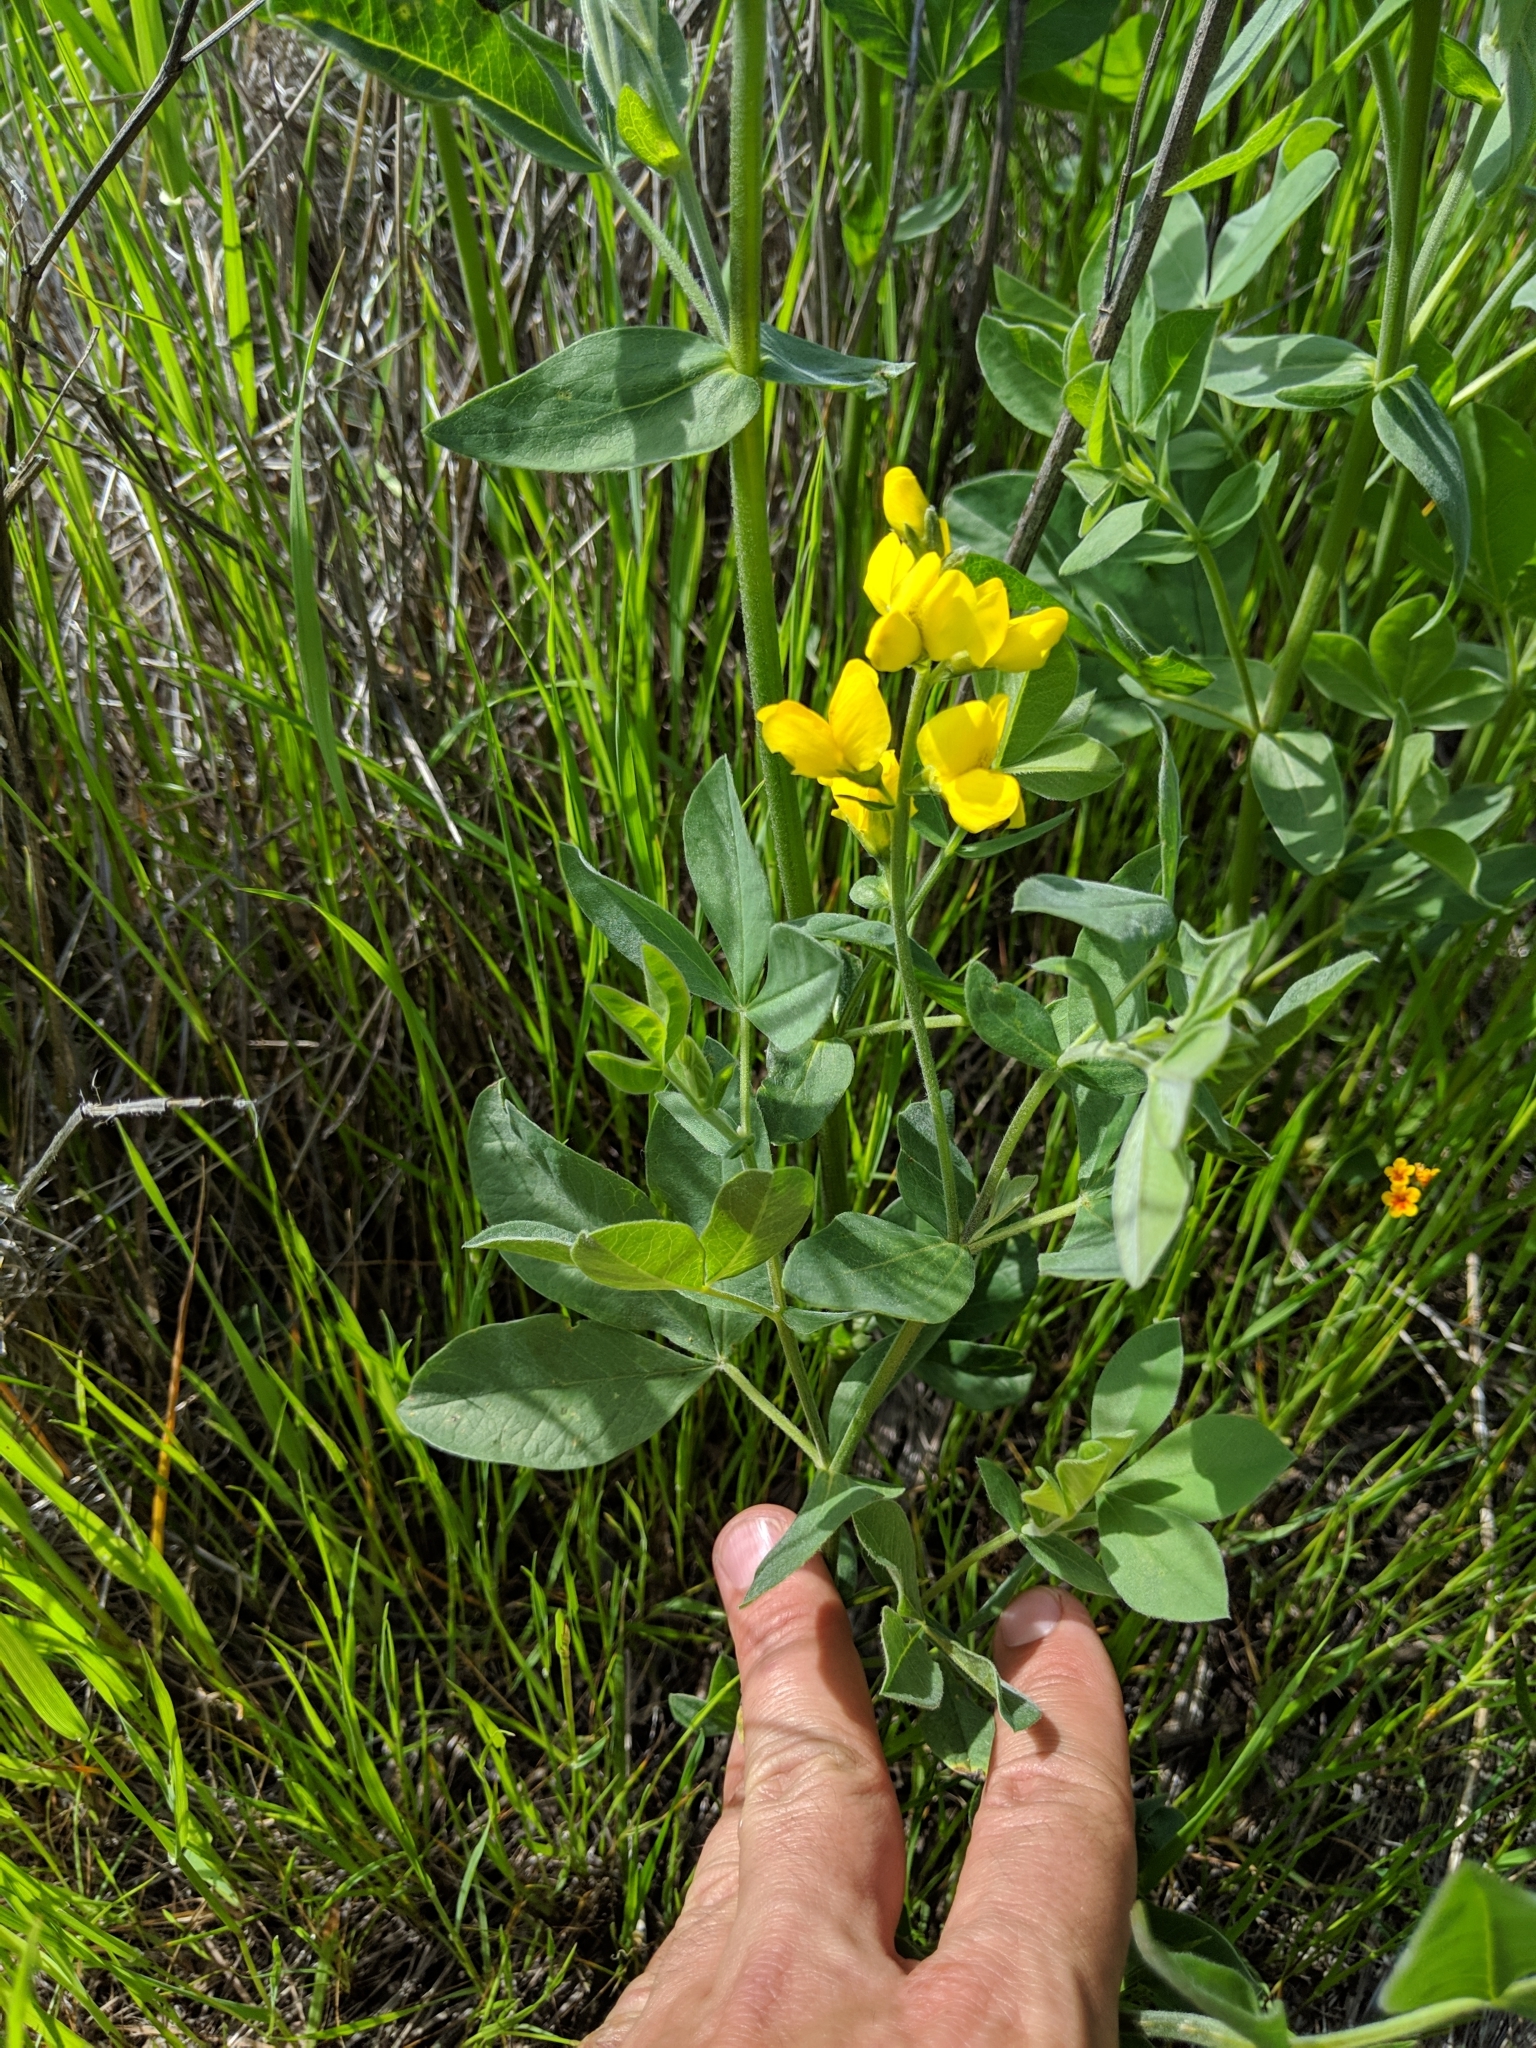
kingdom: Plantae
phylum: Tracheophyta
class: Magnoliopsida
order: Fabales
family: Fabaceae
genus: Thermopsis
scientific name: Thermopsis californica
